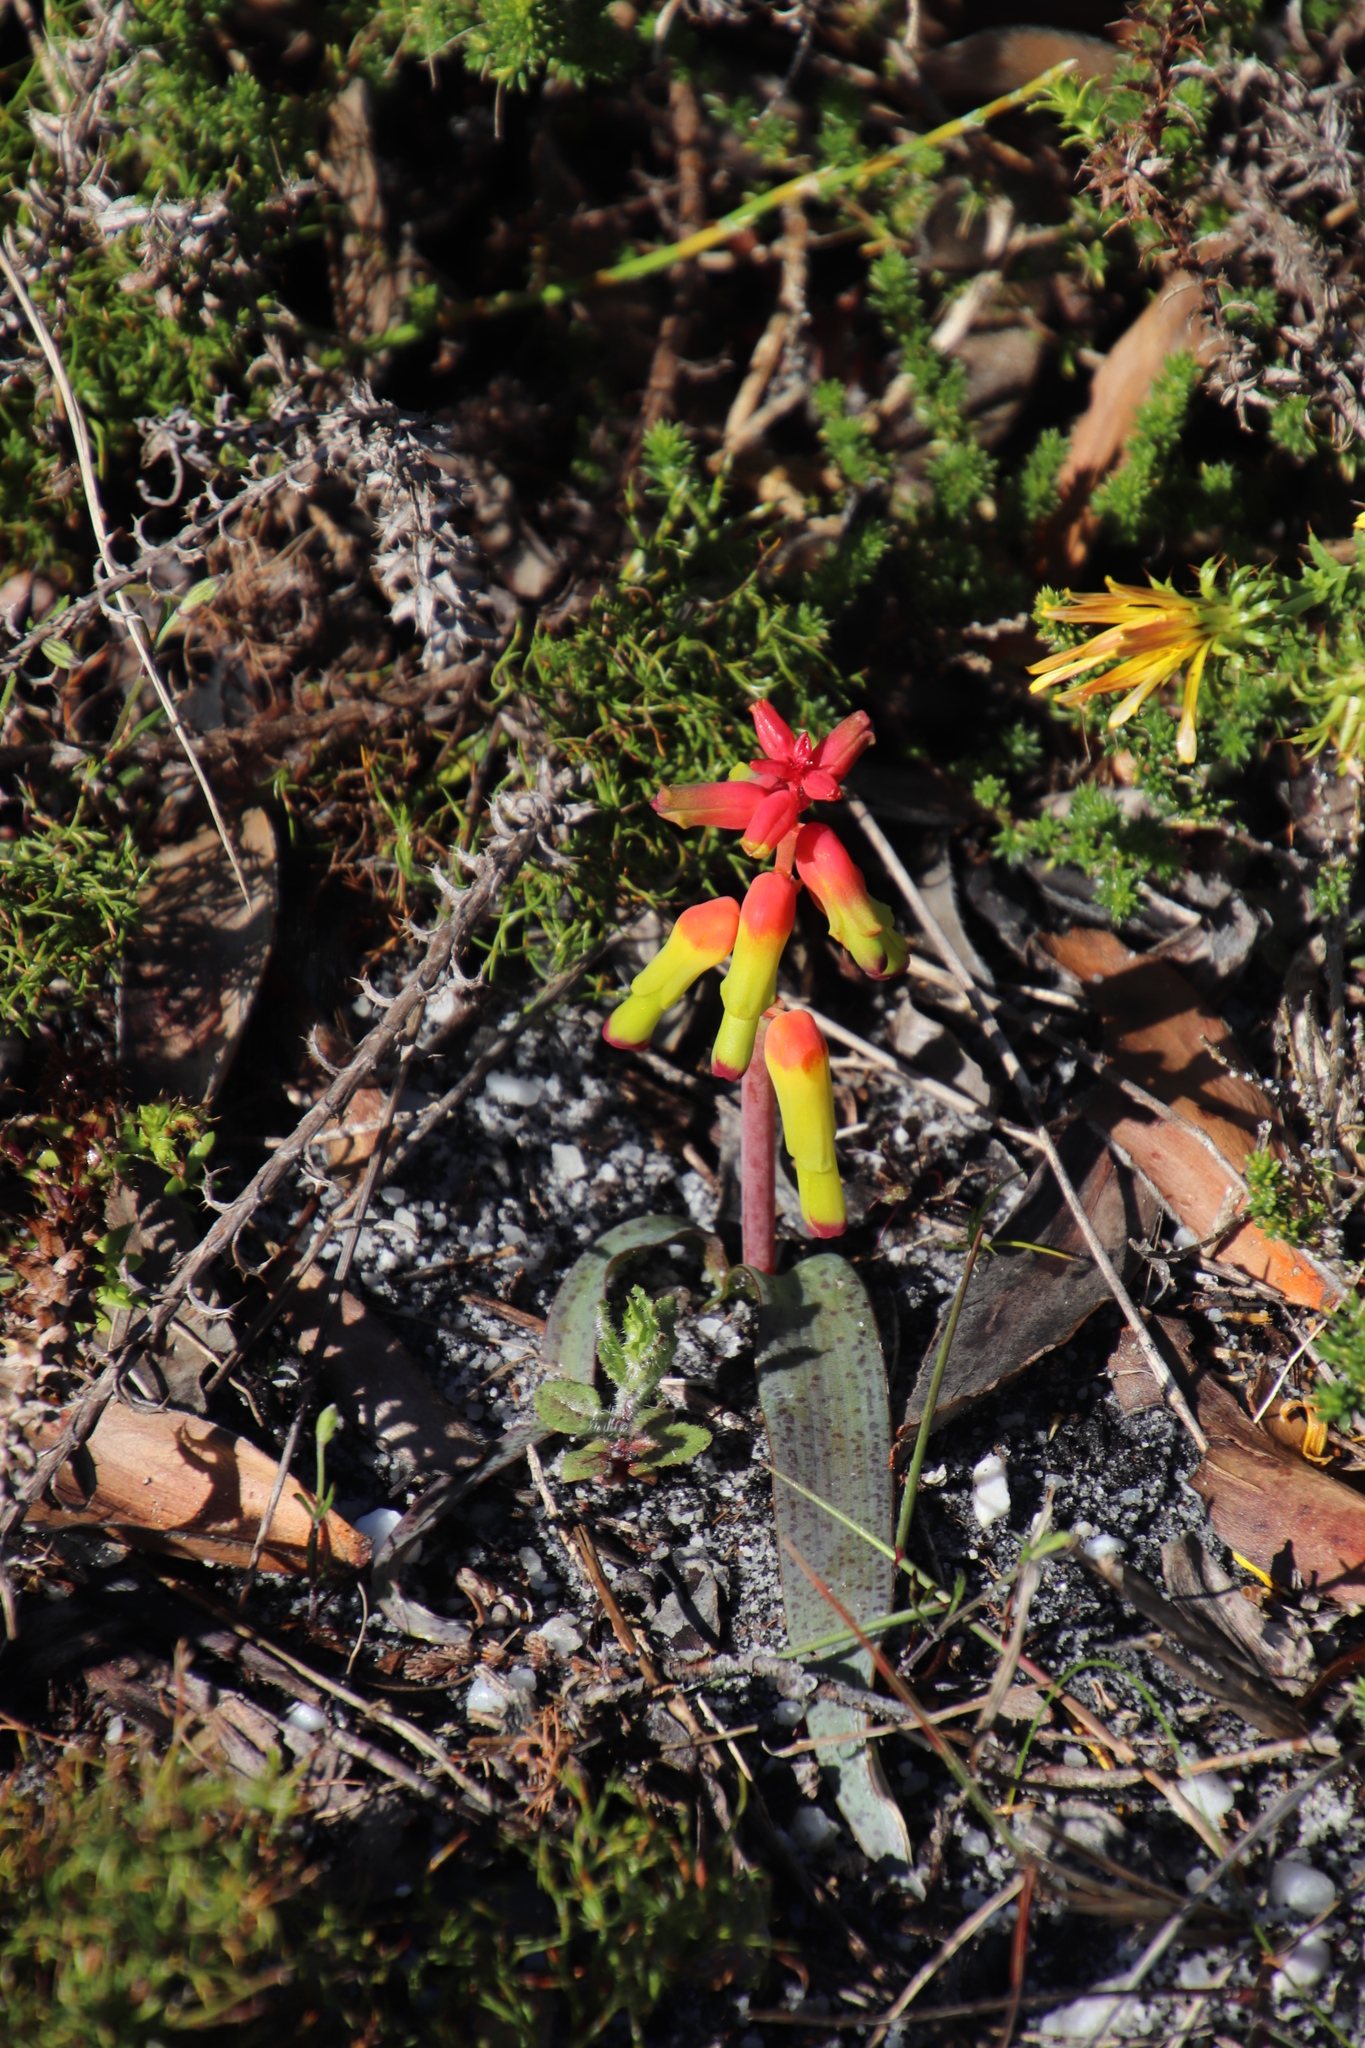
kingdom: Plantae
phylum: Tracheophyta
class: Liliopsida
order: Asparagales
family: Asparagaceae
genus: Lachenalia
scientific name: Lachenalia luteola
